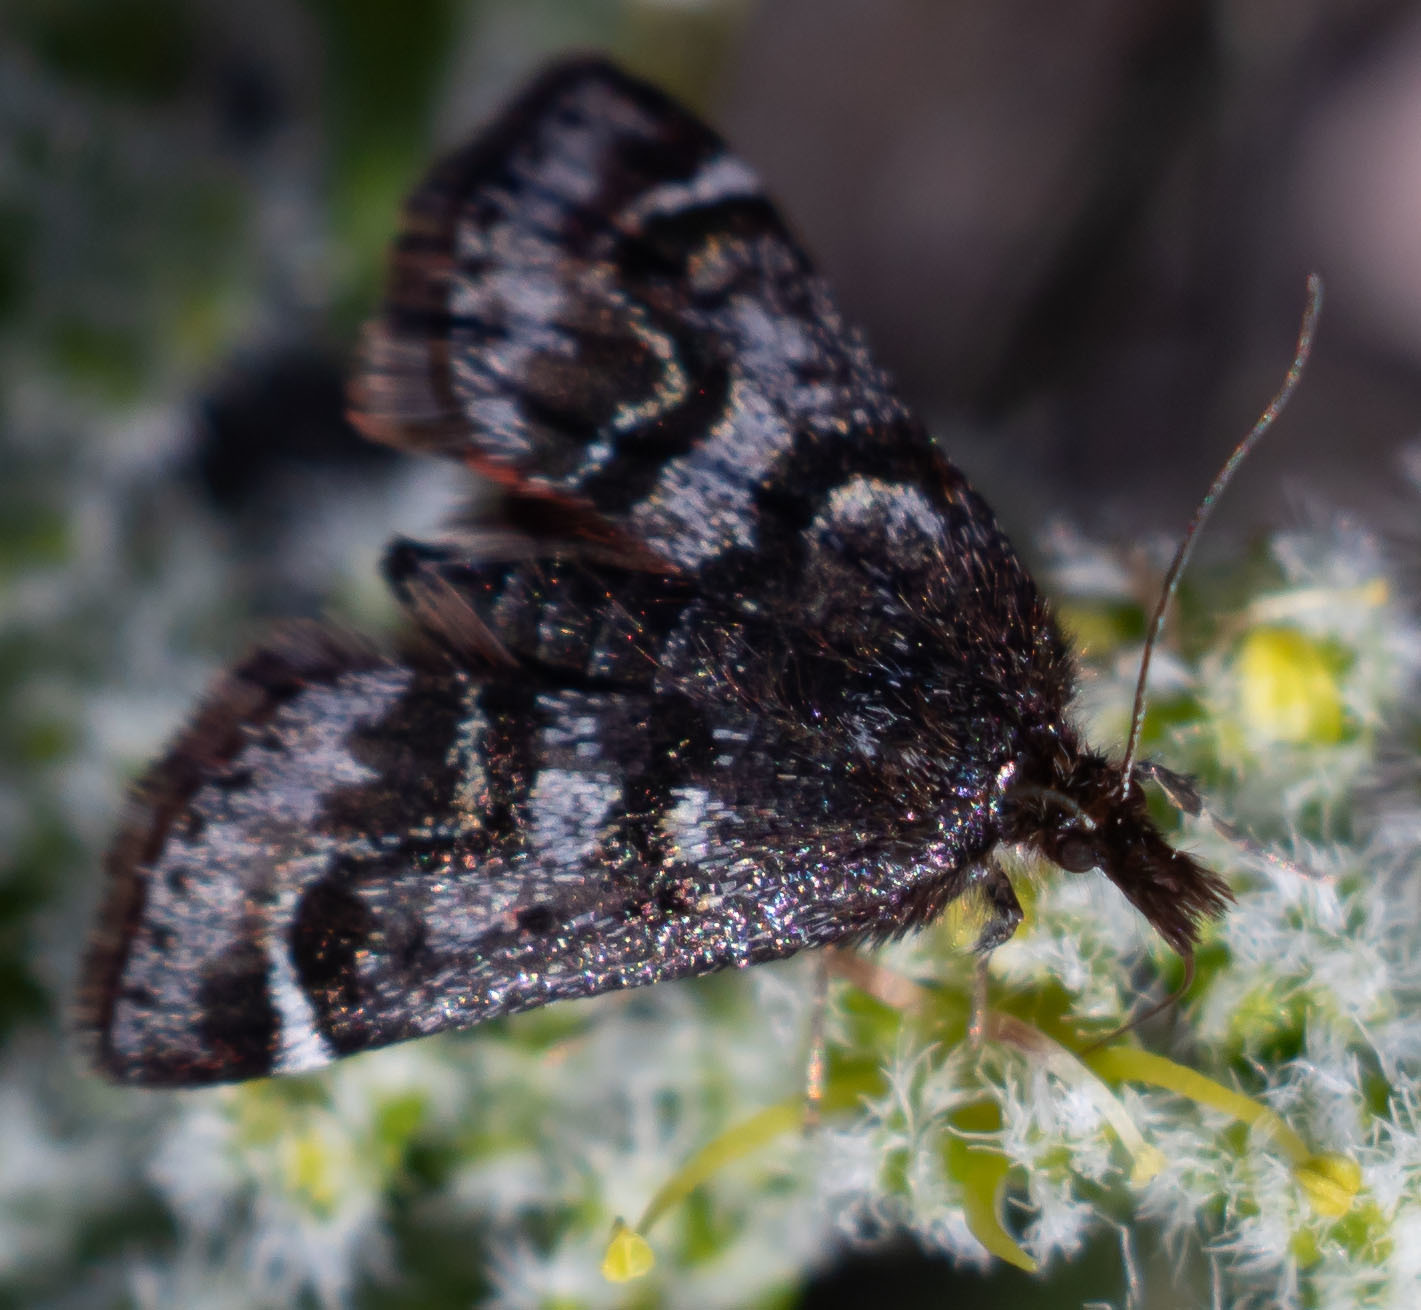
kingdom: Animalia
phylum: Arthropoda
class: Insecta
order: Lepidoptera
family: Crambidae
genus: Pyrausta
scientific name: Pyrausta dapalis
